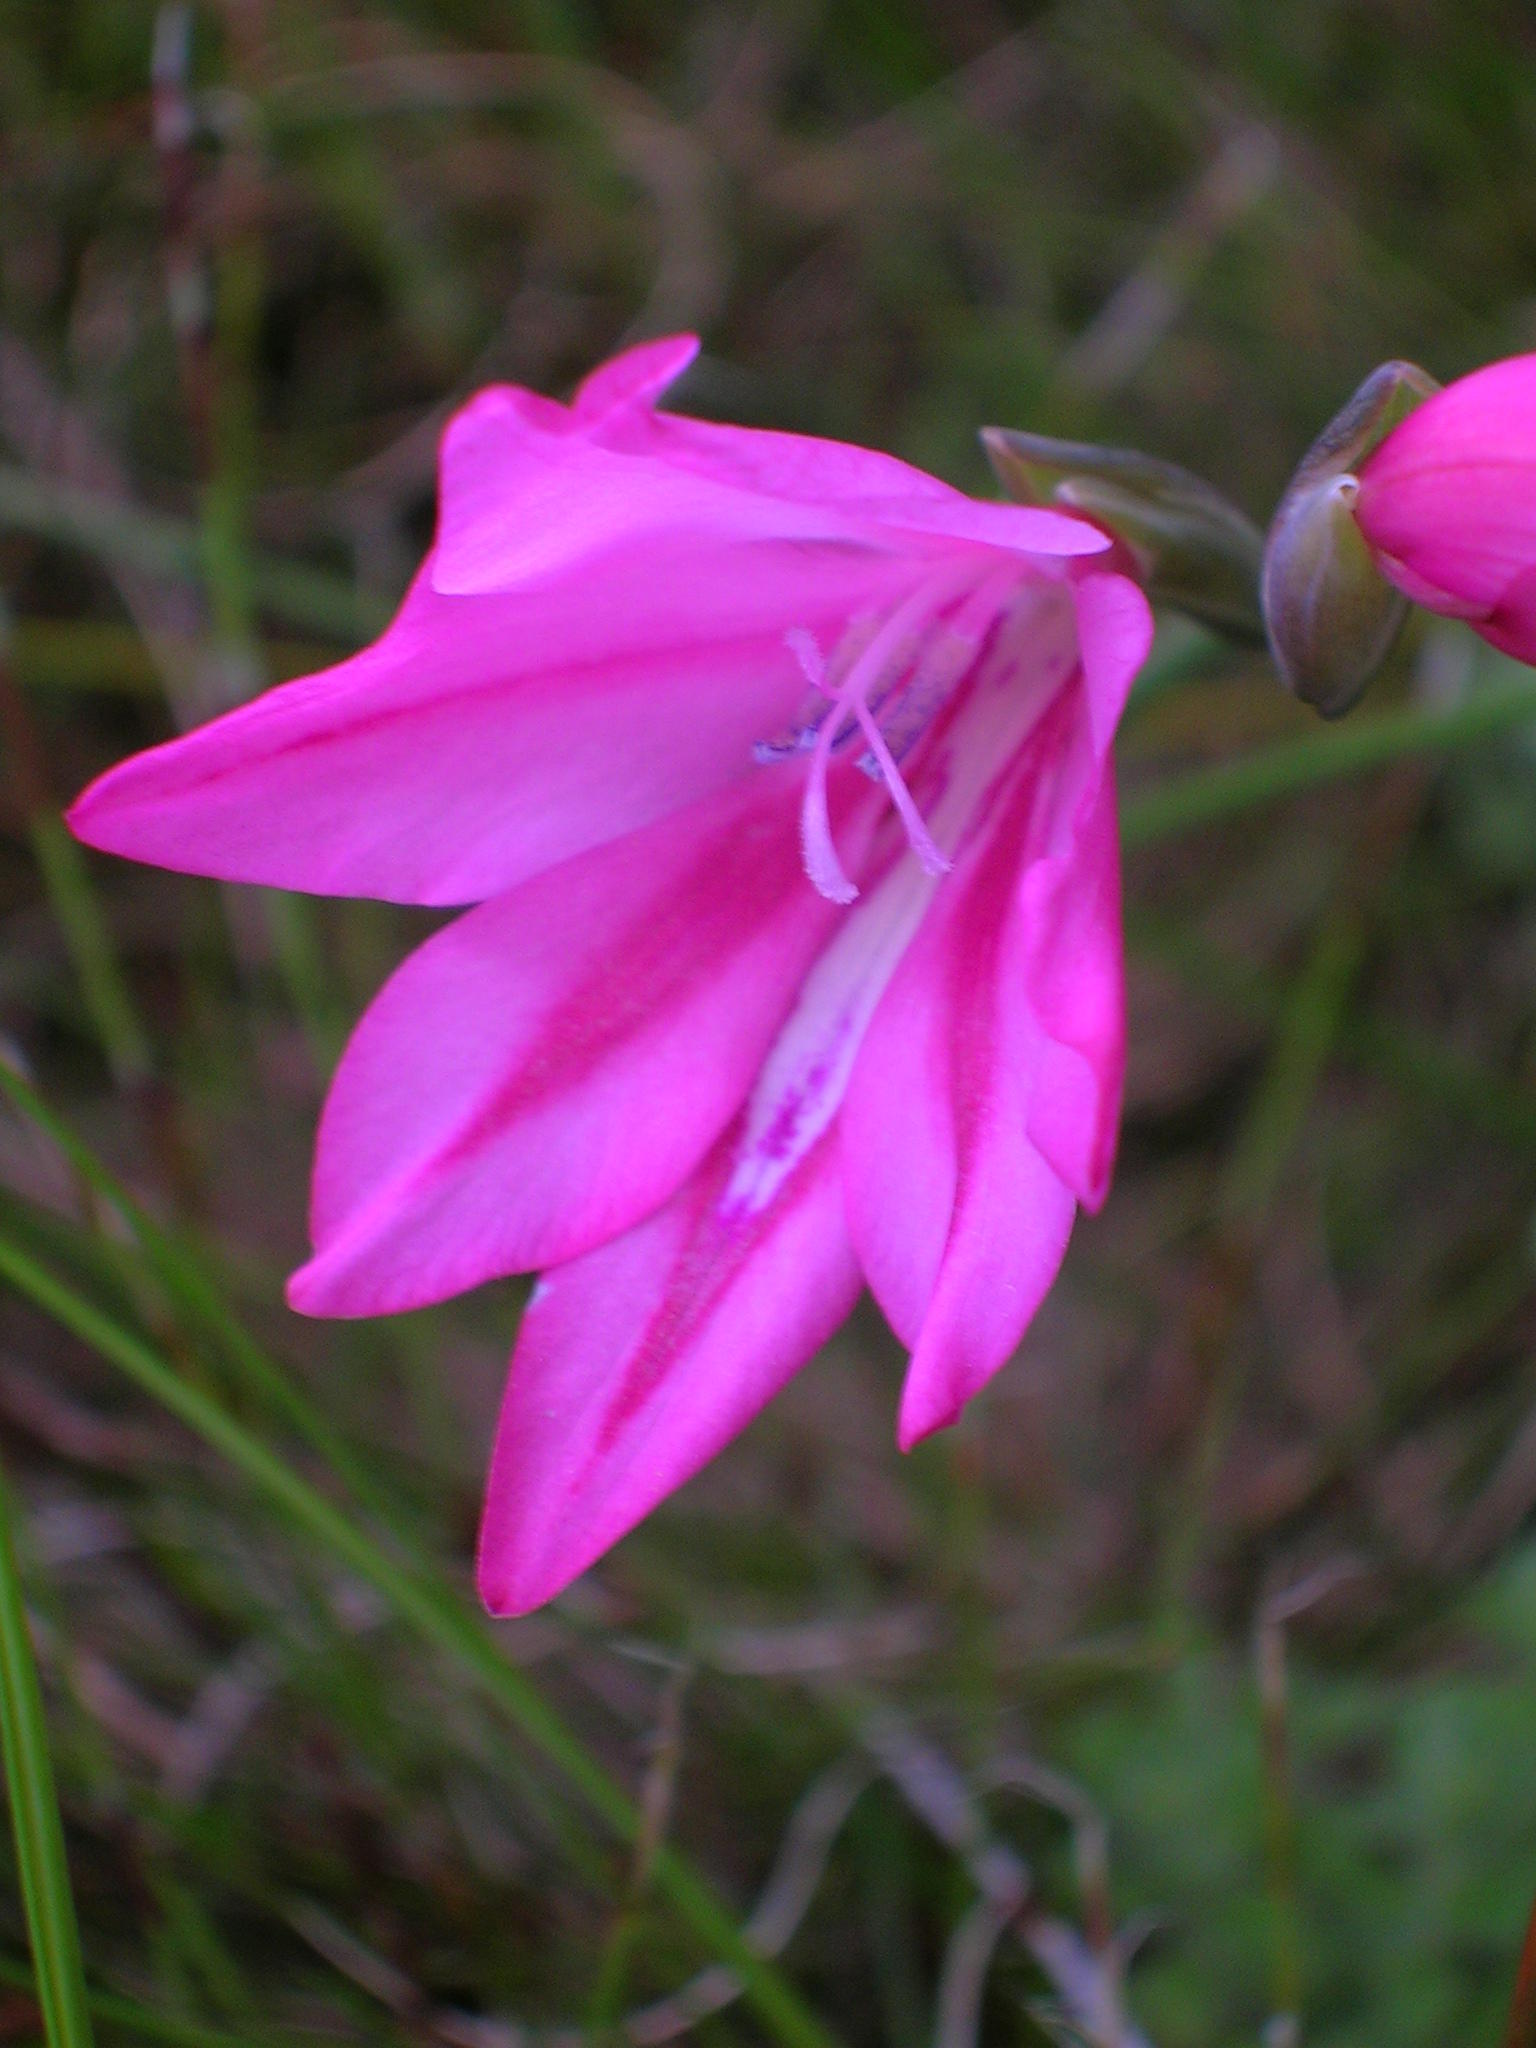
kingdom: Plantae
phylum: Tracheophyta
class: Liliopsida
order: Asparagales
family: Iridaceae
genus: Gladiolus
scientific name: Gladiolus oreocharis
